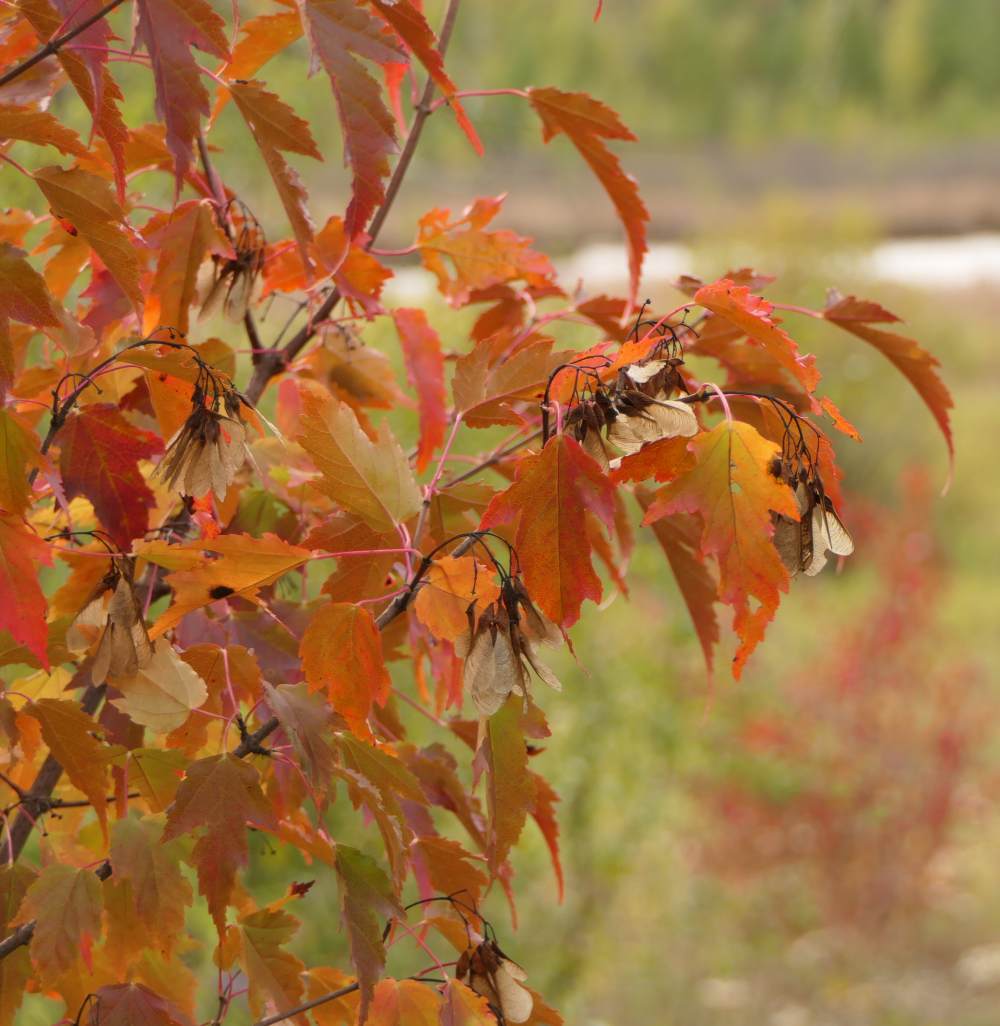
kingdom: Plantae
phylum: Tracheophyta
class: Magnoliopsida
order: Sapindales
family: Sapindaceae
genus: Acer
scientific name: Acer tataricum
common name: Tartar maple
